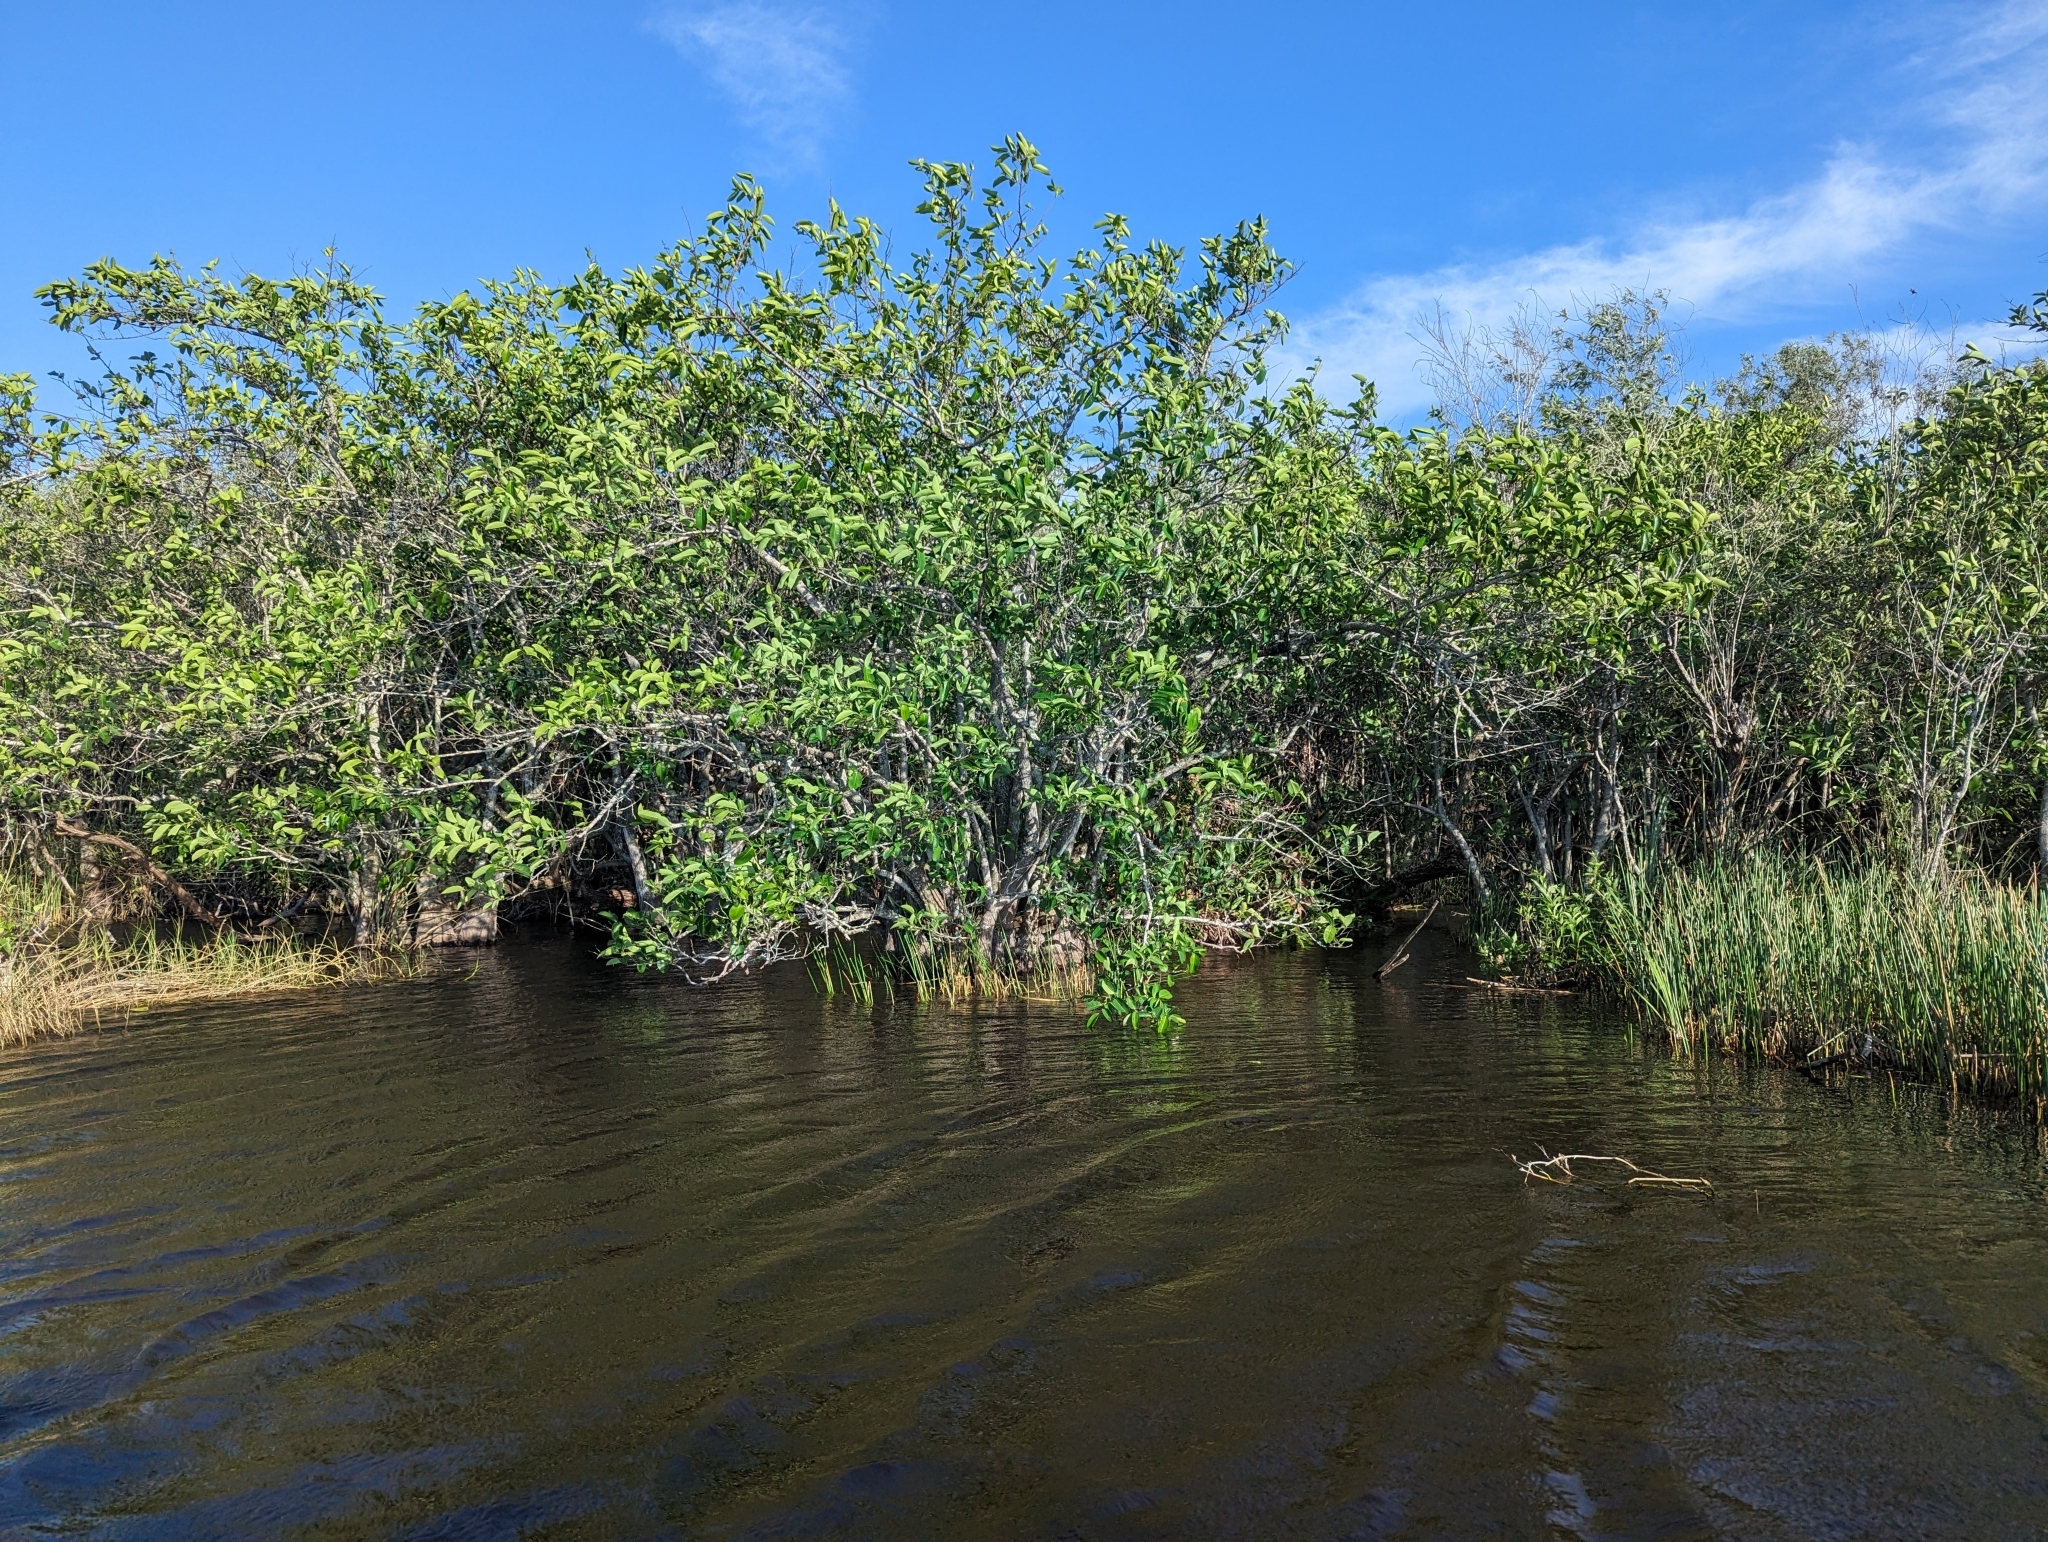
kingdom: Plantae
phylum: Tracheophyta
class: Magnoliopsida
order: Magnoliales
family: Annonaceae
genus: Annona
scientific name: Annona glabra
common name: Monkey apple
